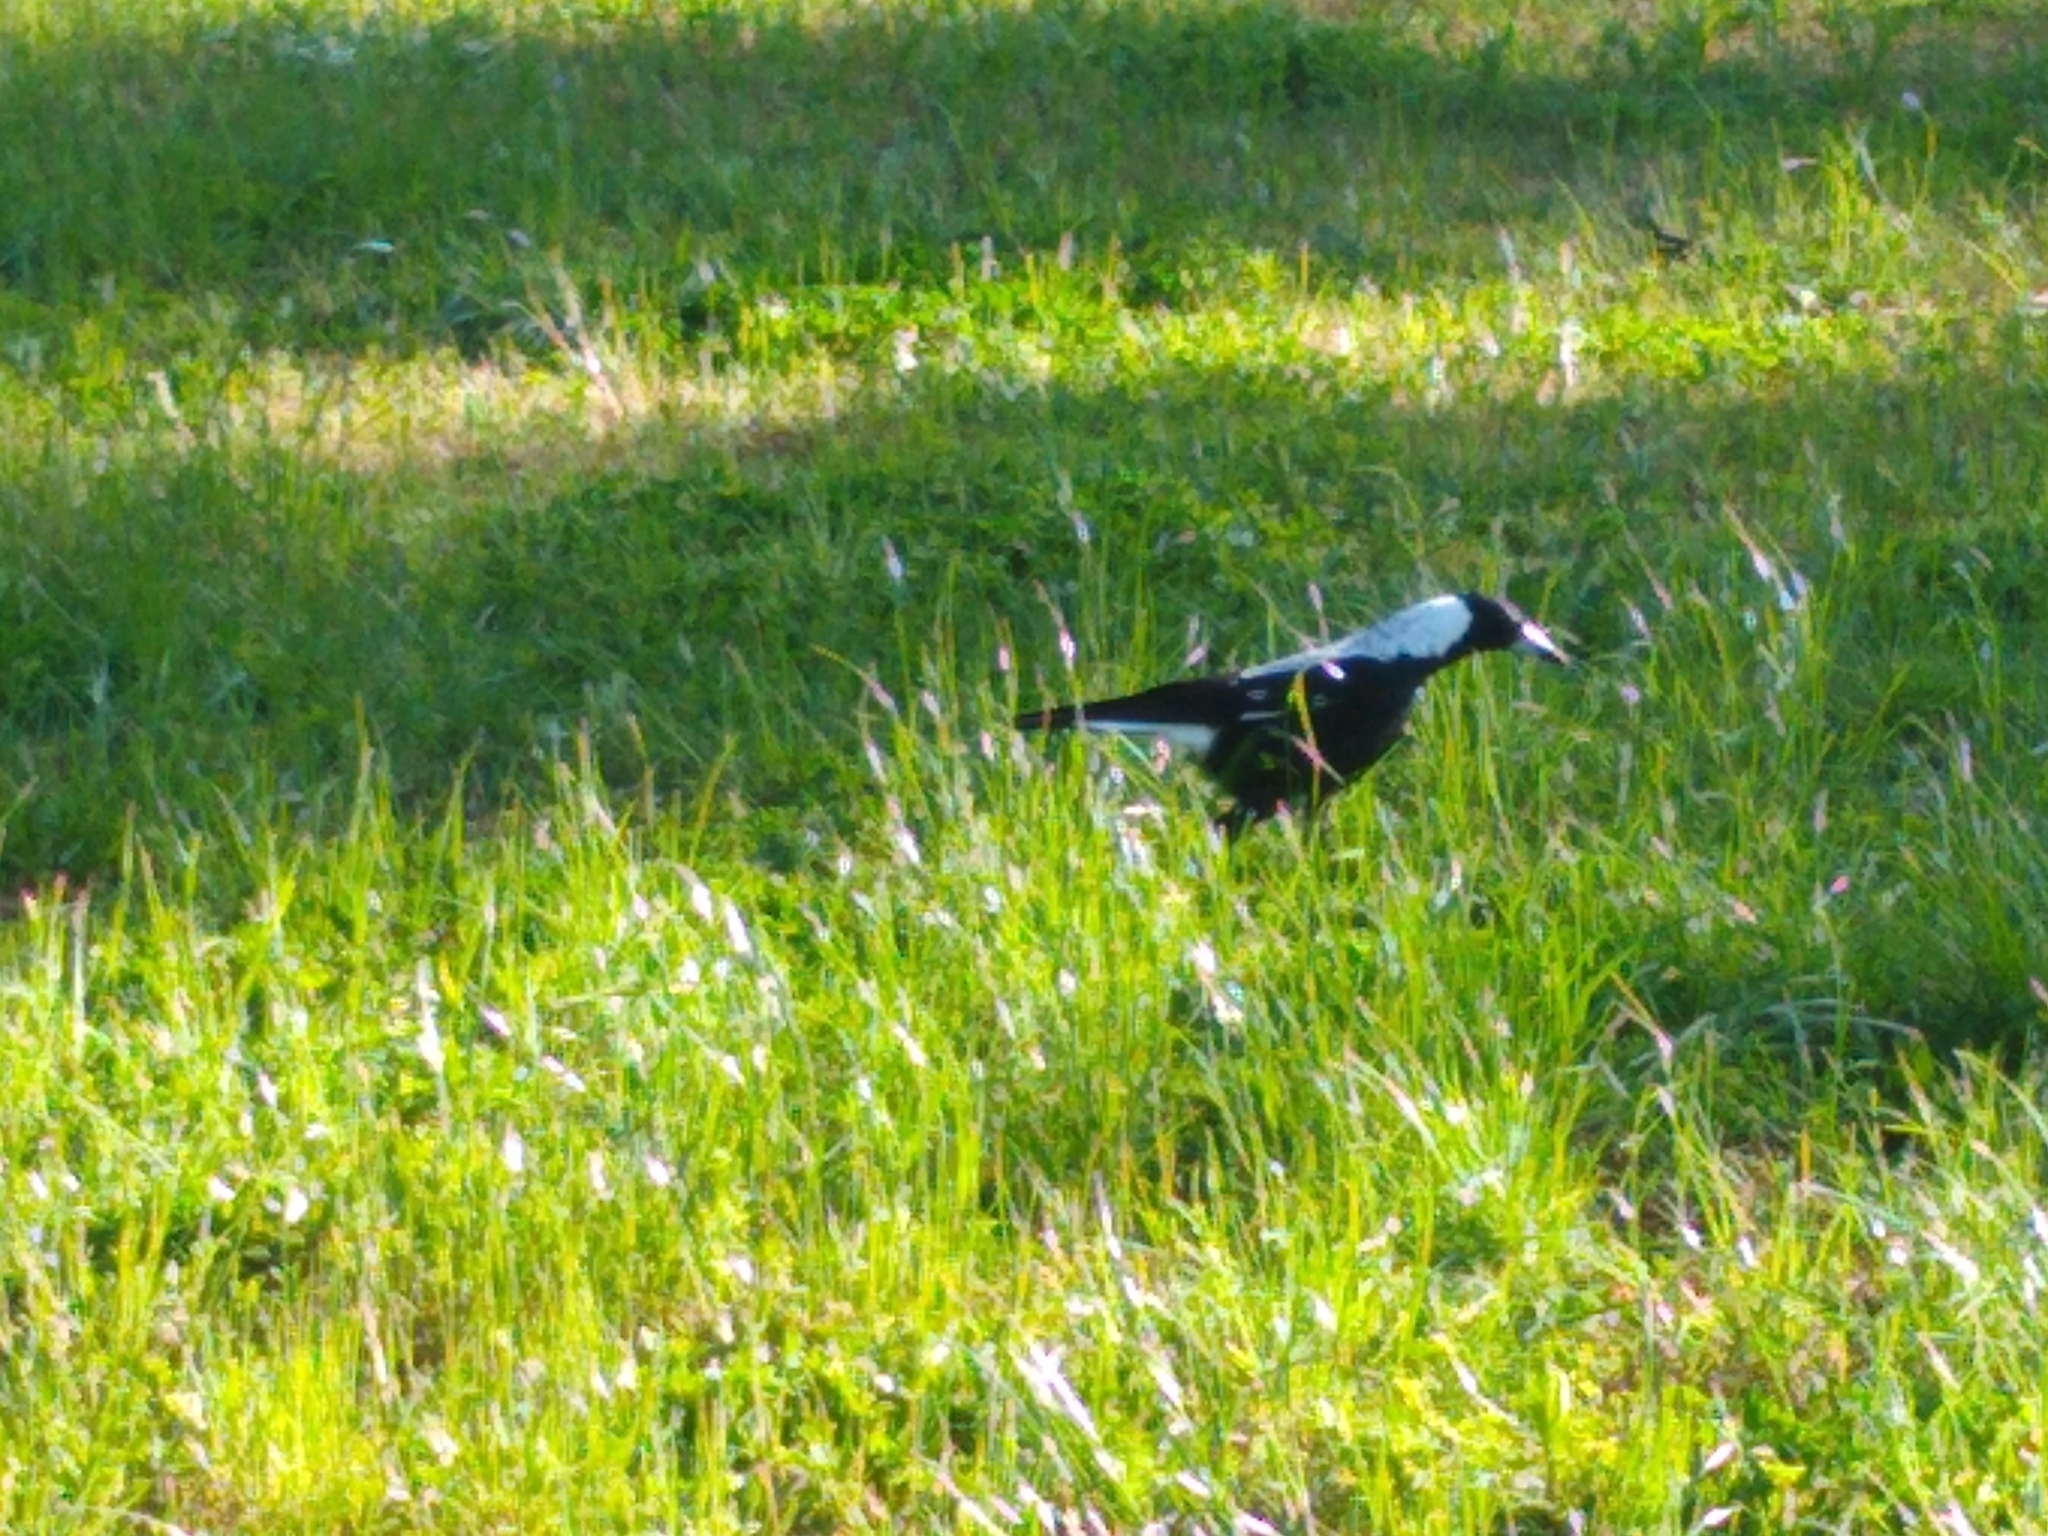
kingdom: Animalia
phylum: Chordata
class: Aves
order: Passeriformes
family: Cracticidae
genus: Gymnorhina
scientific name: Gymnorhina tibicen
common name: Australian magpie
